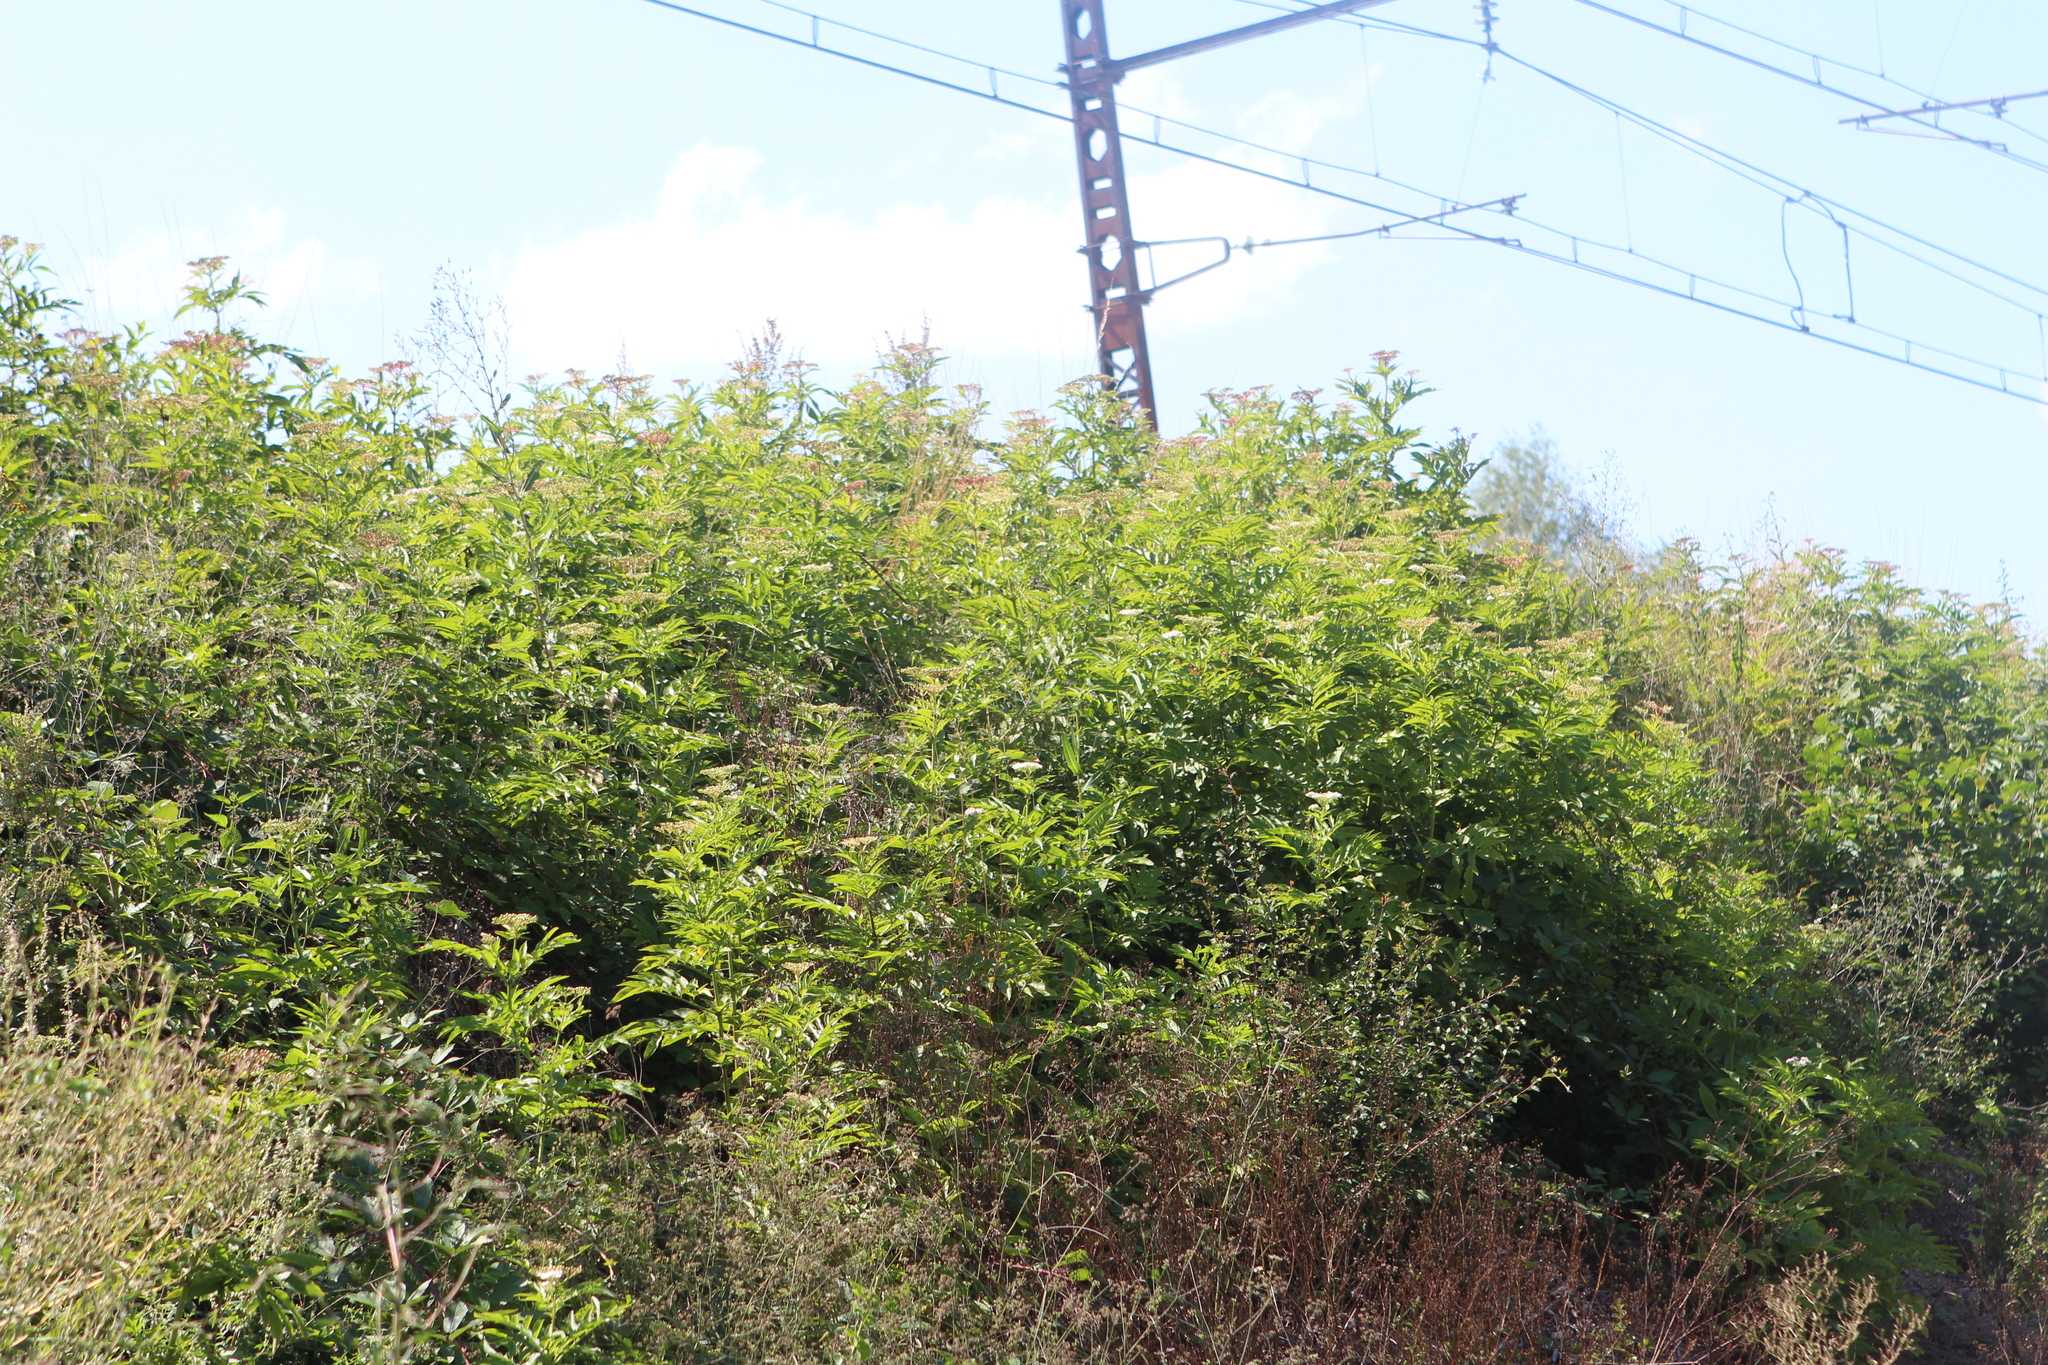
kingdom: Plantae
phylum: Tracheophyta
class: Magnoliopsida
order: Dipsacales
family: Viburnaceae
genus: Sambucus
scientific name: Sambucus ebulus
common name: Dwarf elder
